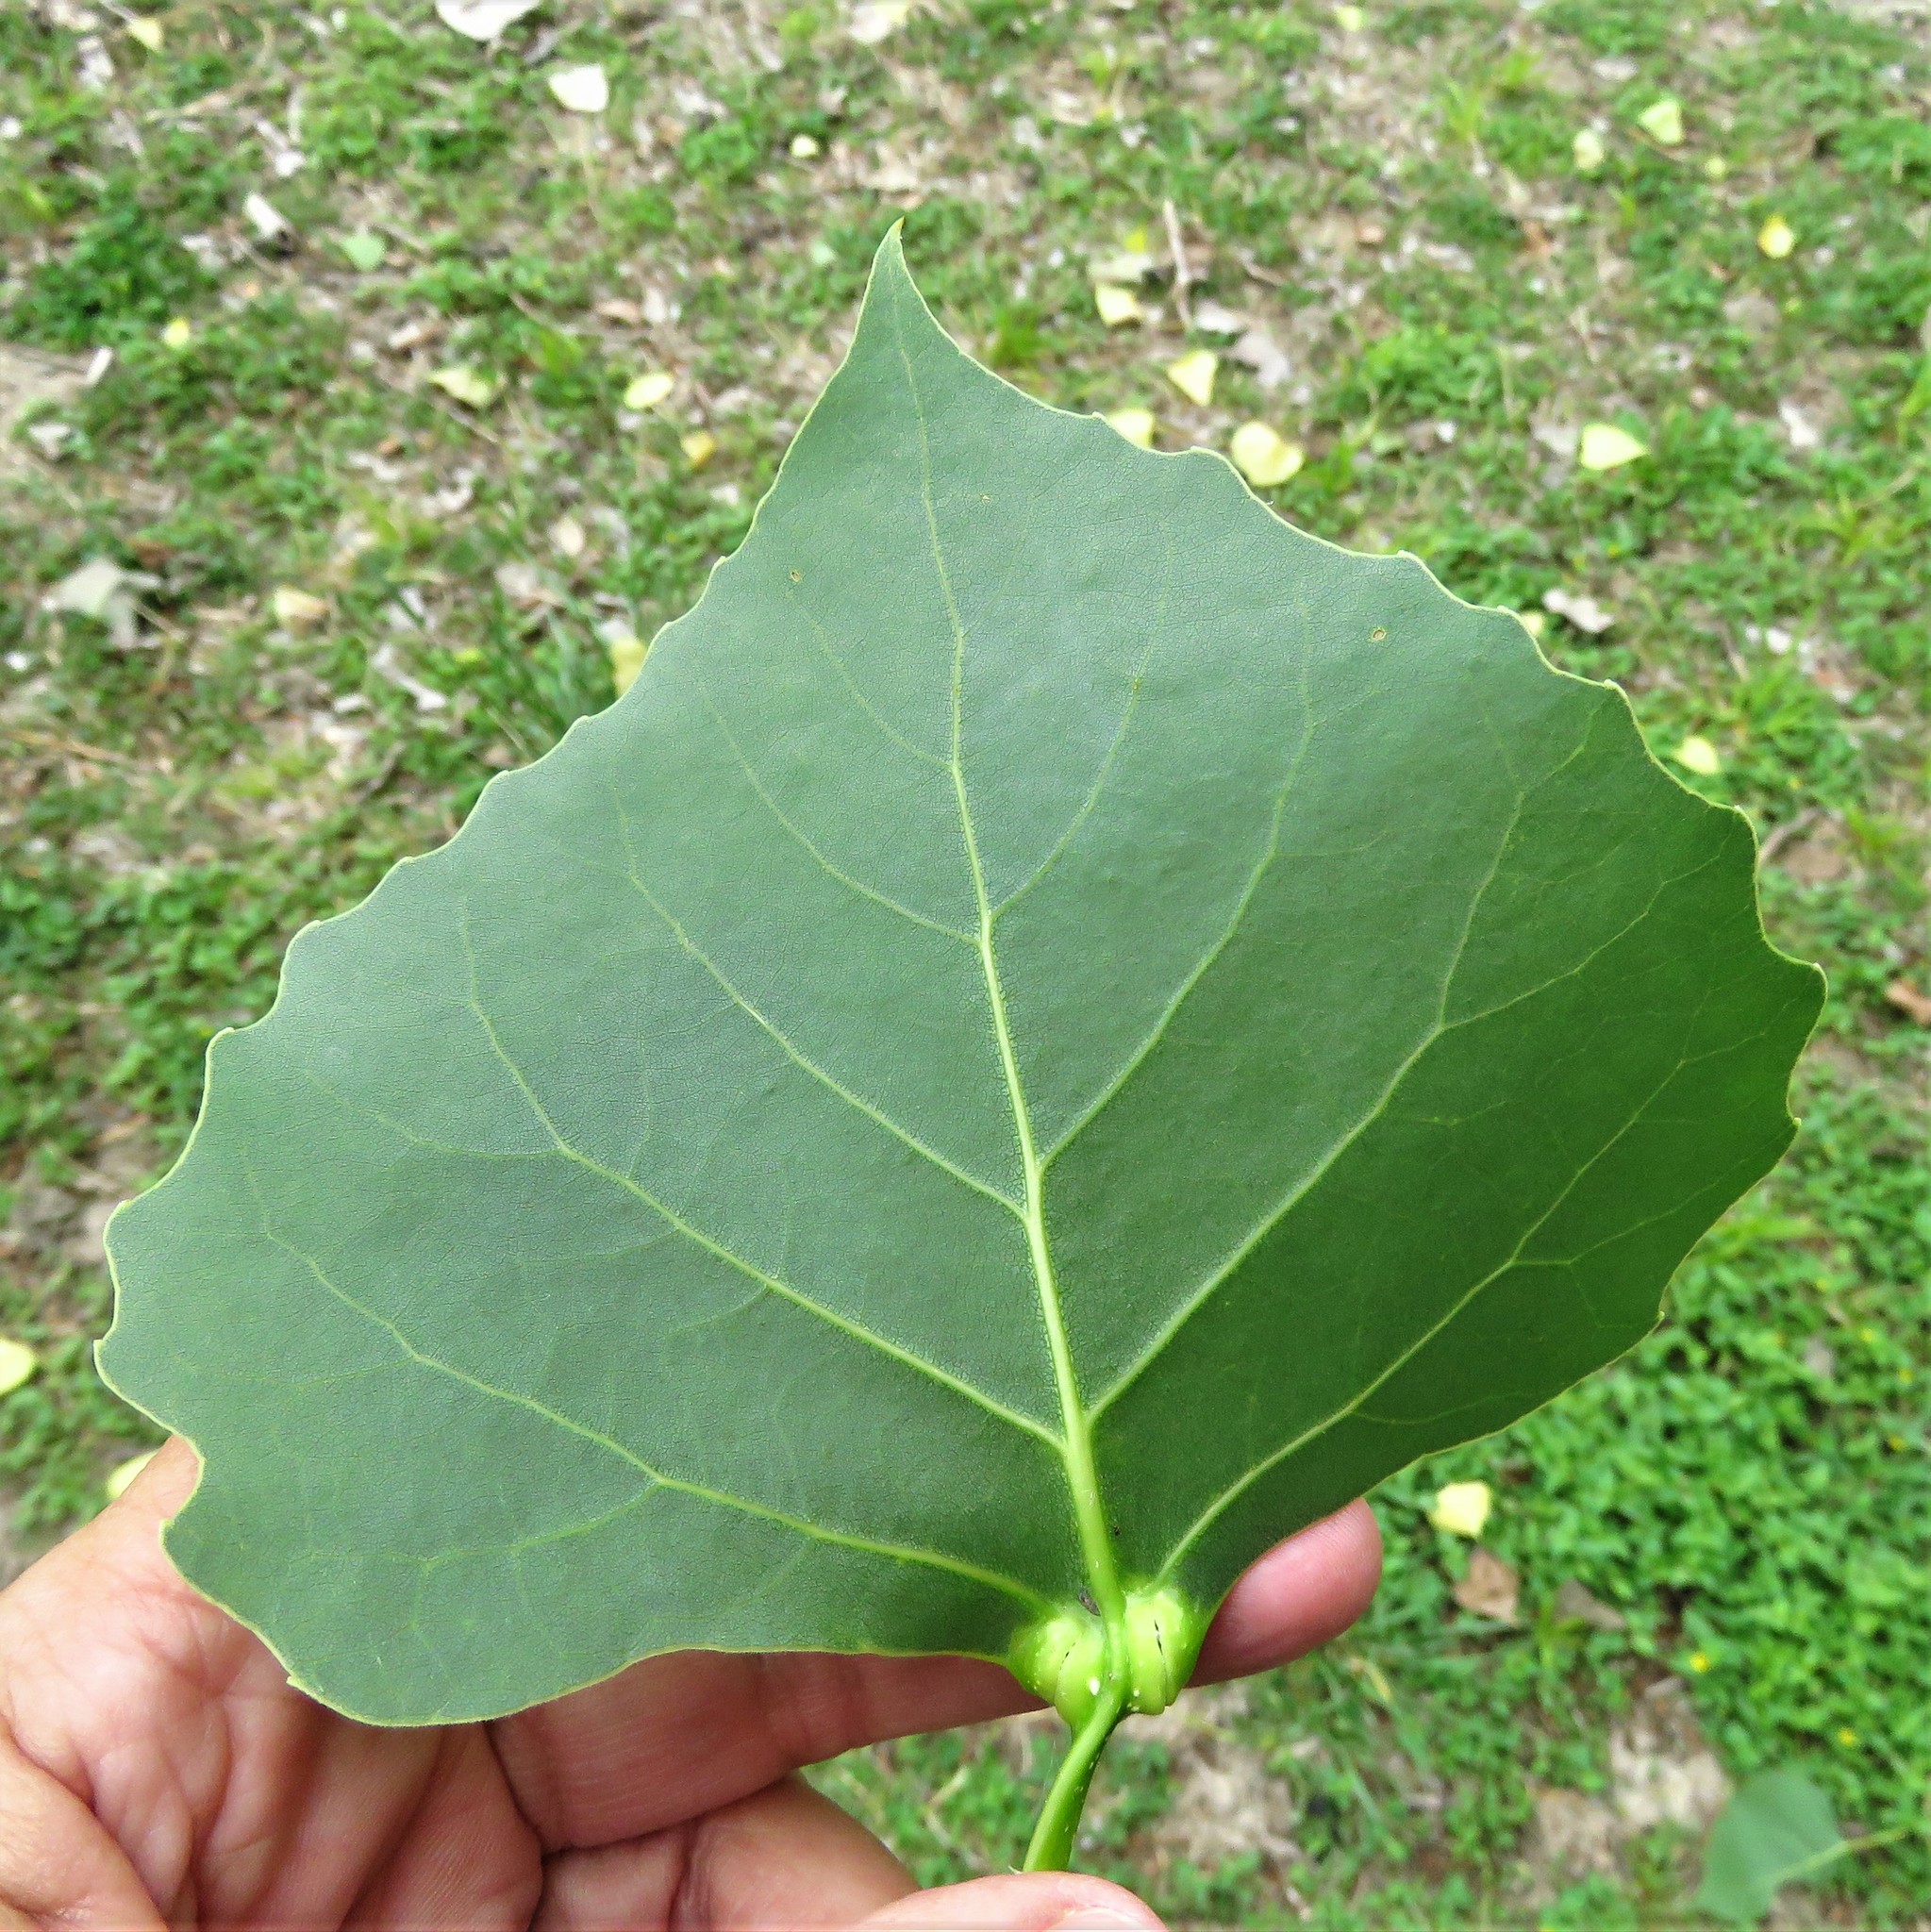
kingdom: Plantae
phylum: Tracheophyta
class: Magnoliopsida
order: Malpighiales
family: Salicaceae
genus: Populus
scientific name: Populus deltoides
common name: Eastern cottonwood
